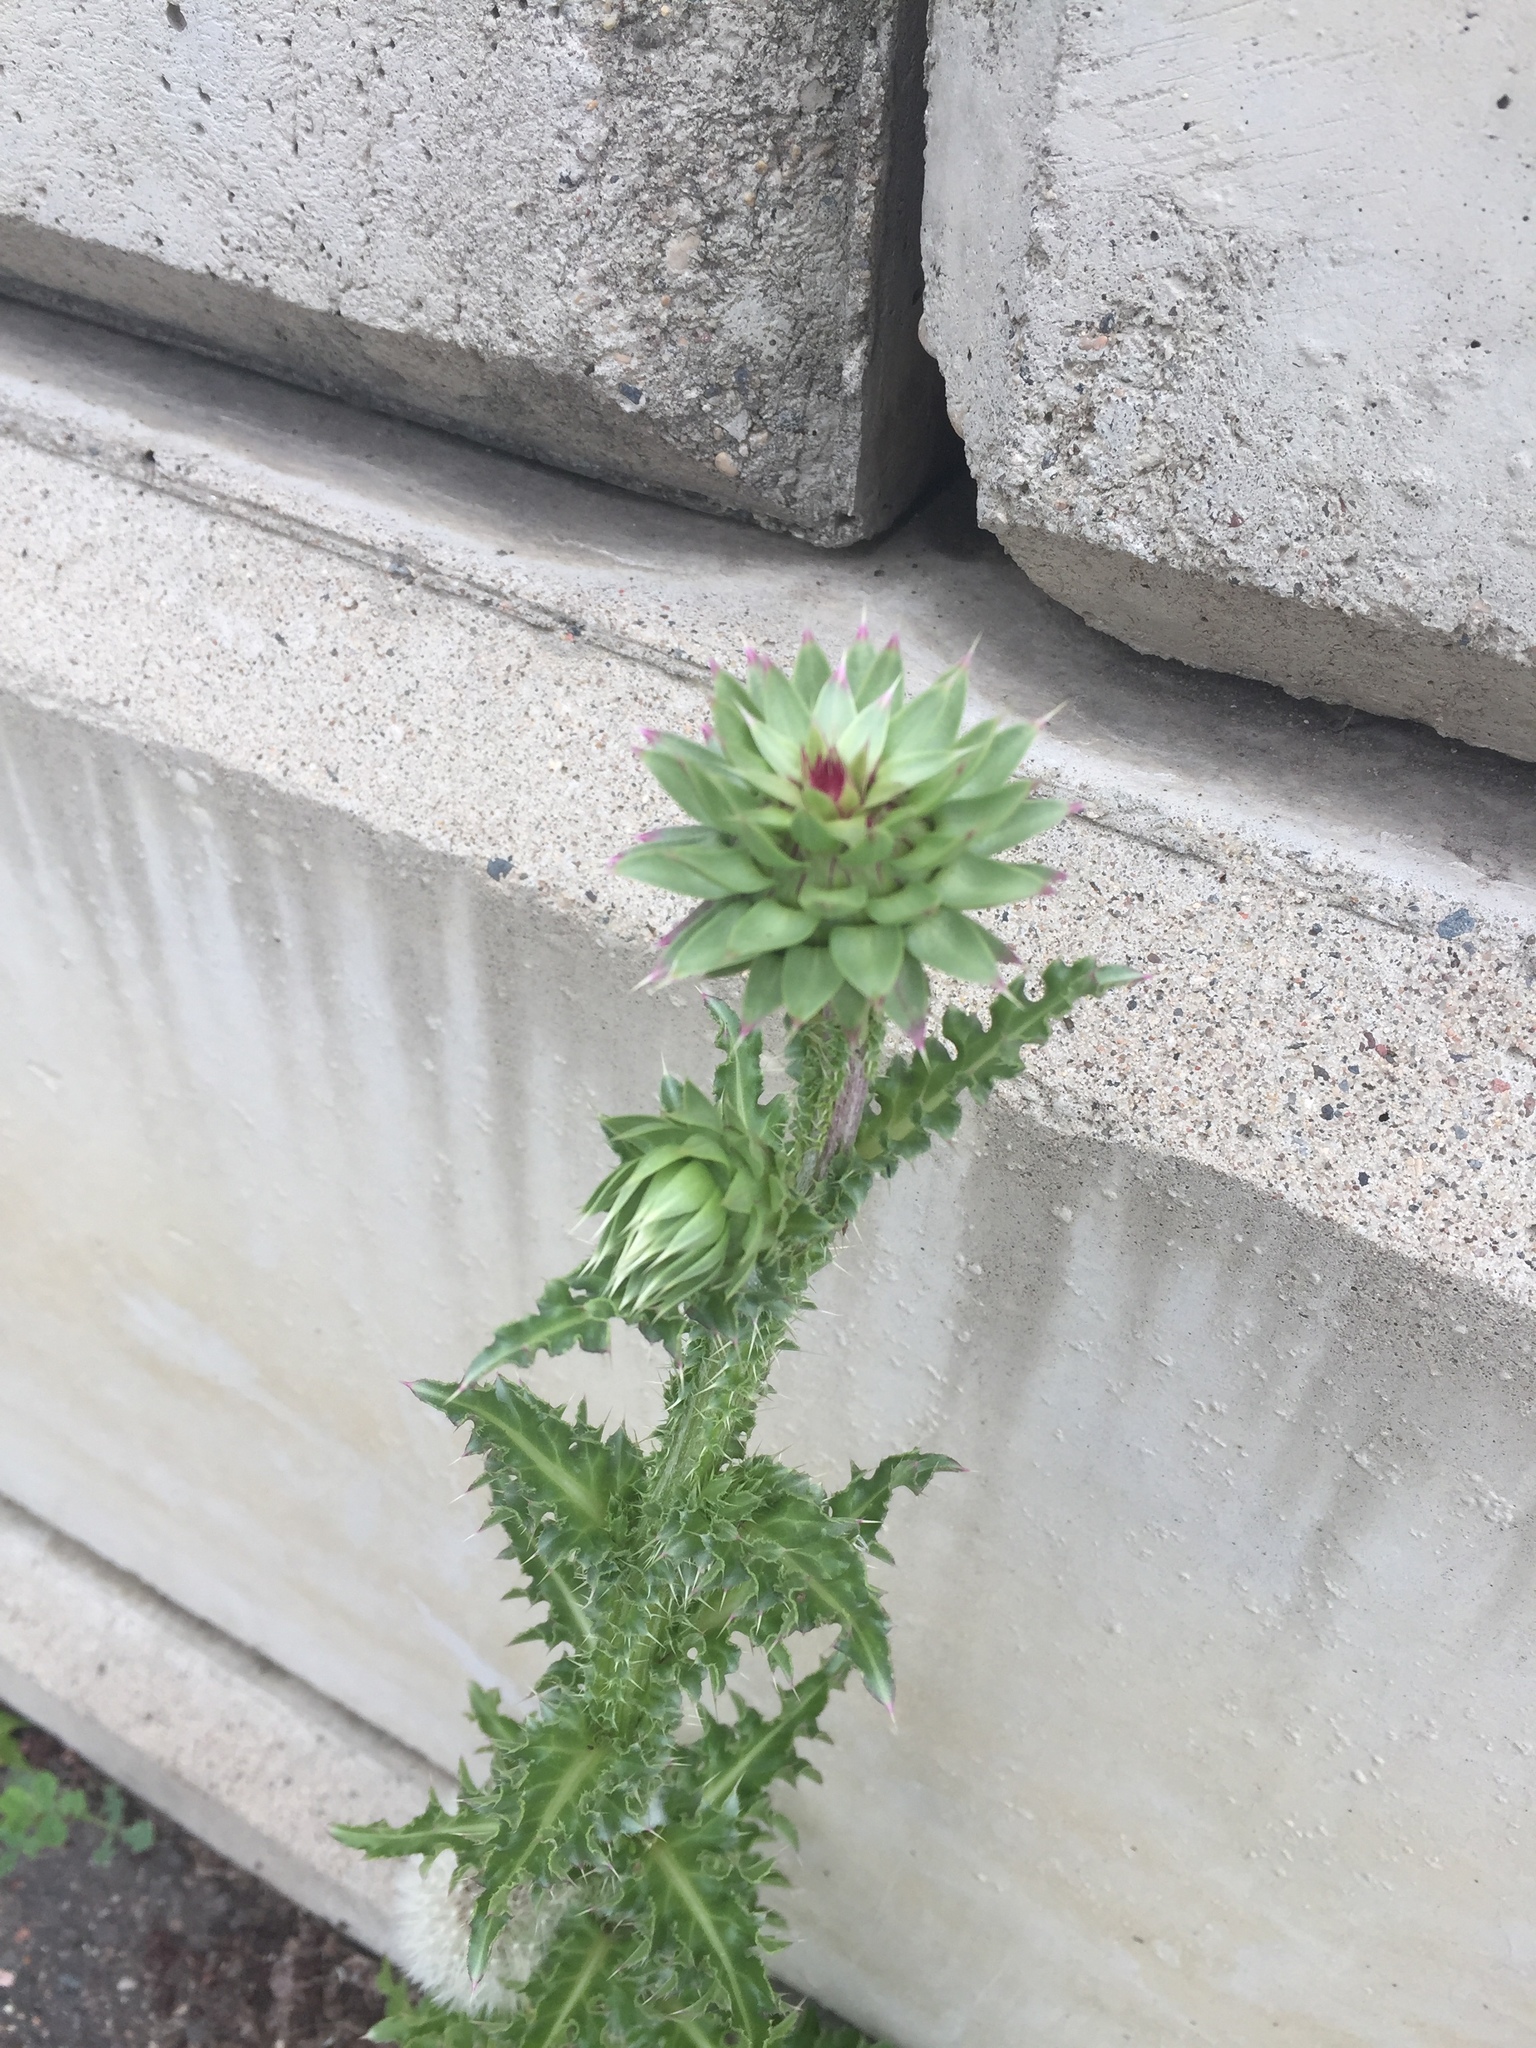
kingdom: Plantae
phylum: Tracheophyta
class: Magnoliopsida
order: Asterales
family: Asteraceae
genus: Carduus
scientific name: Carduus nutans
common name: Musk thistle
